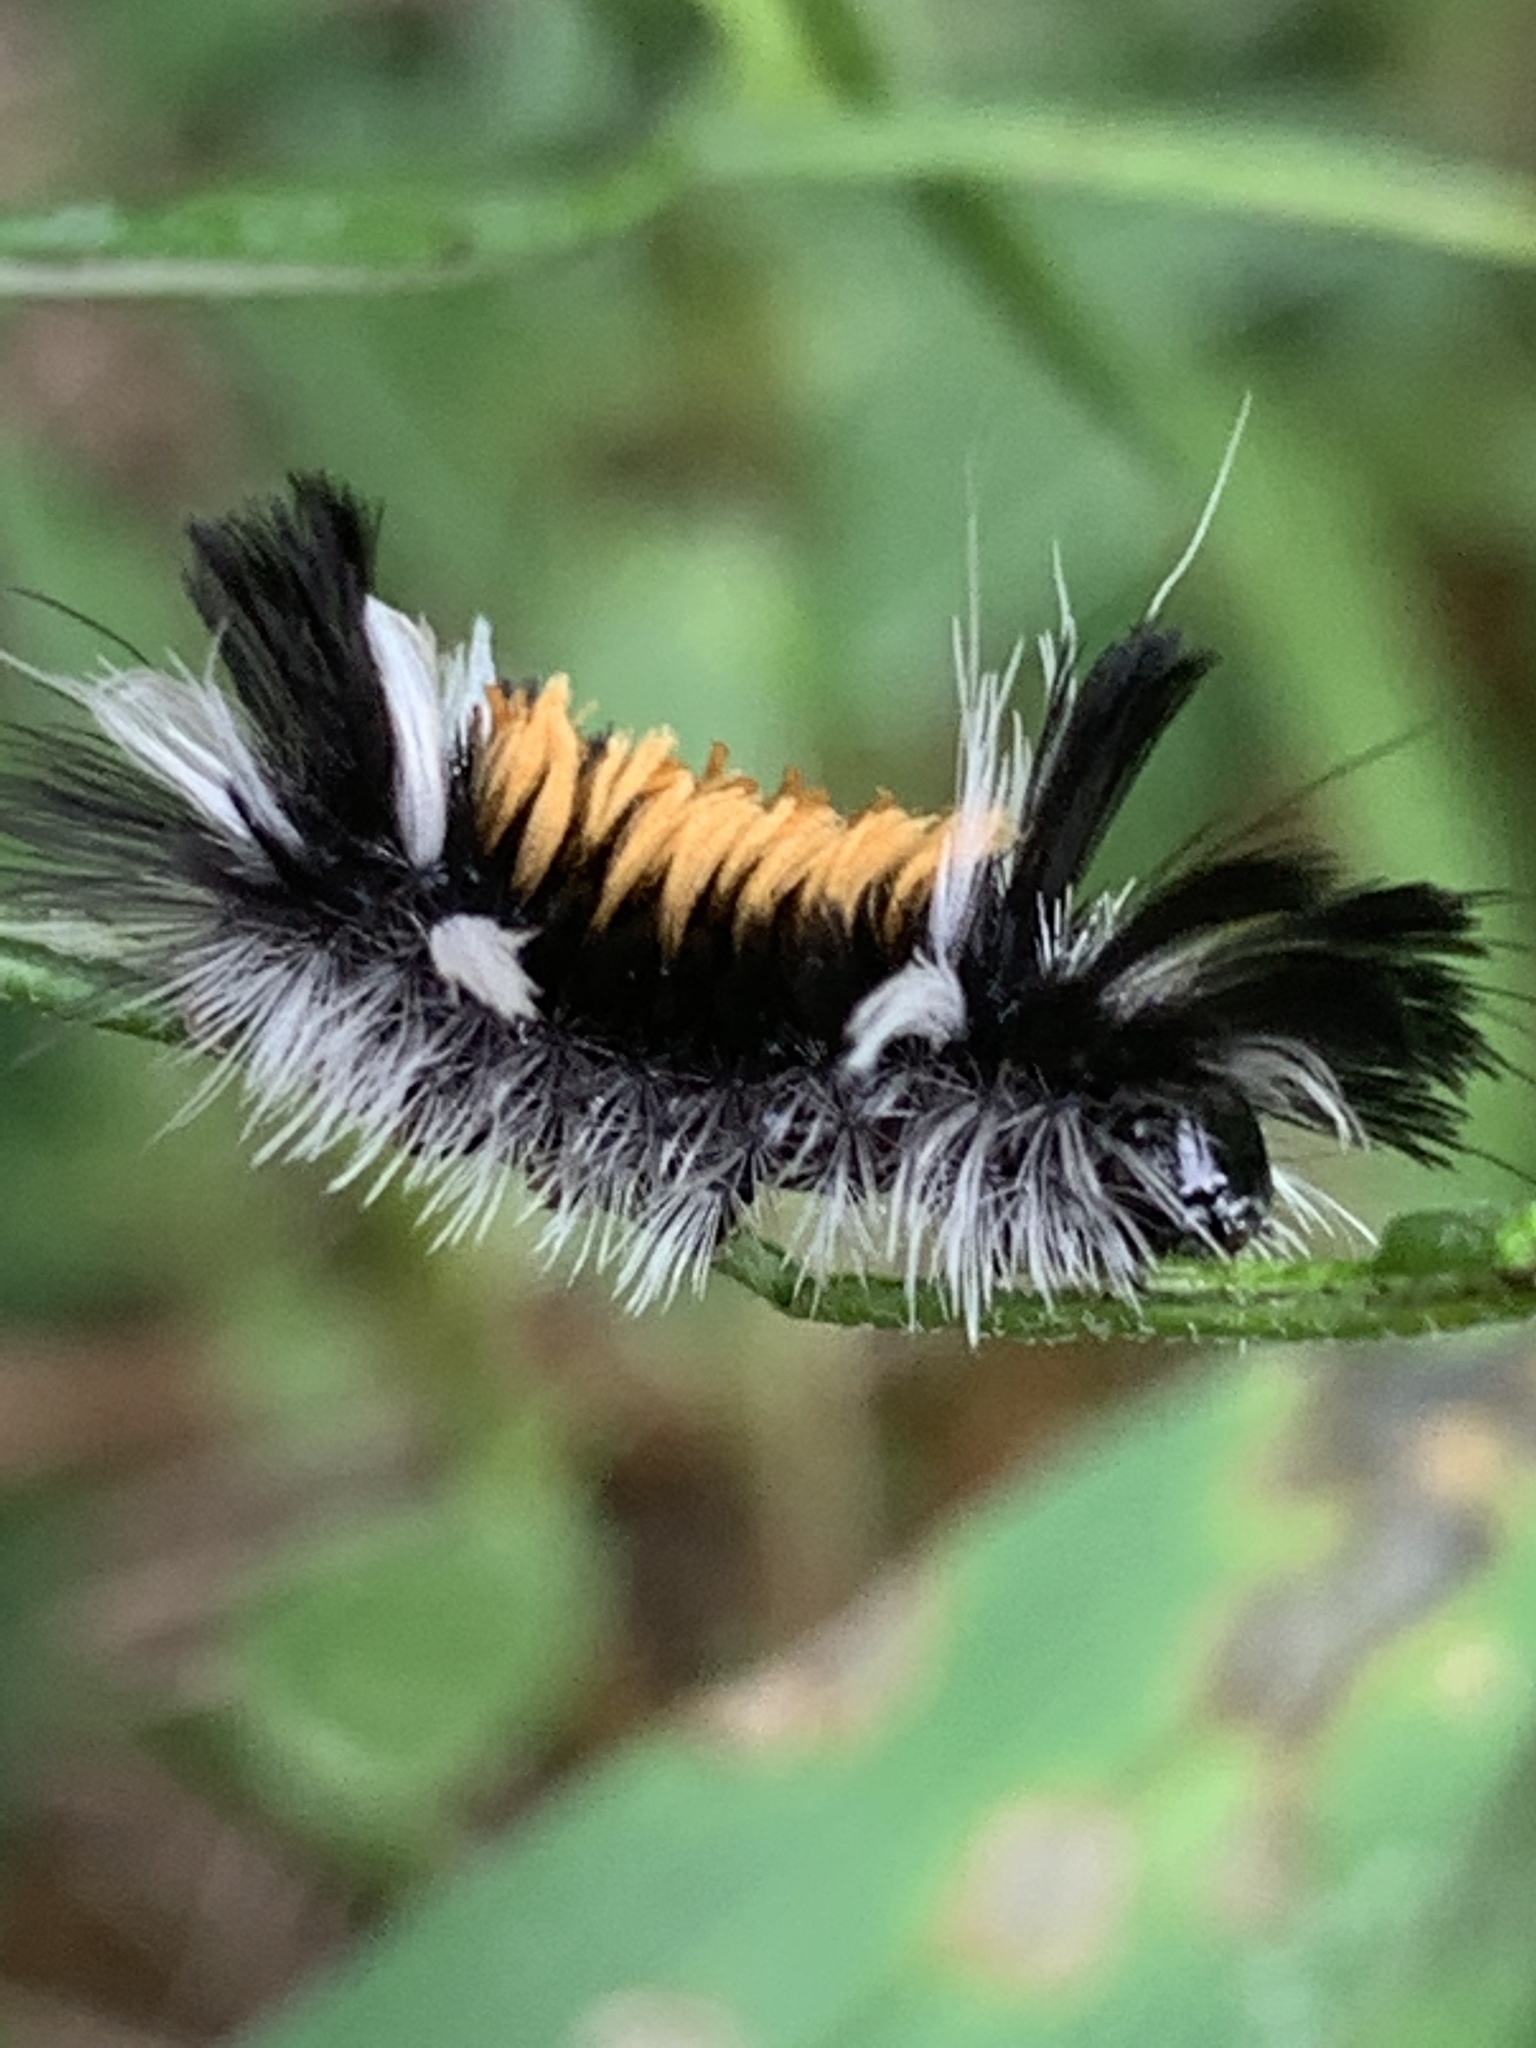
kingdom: Animalia
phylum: Arthropoda
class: Insecta
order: Lepidoptera
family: Erebidae
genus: Euchaetes
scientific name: Euchaetes egle
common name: Milkweed tussock moth
